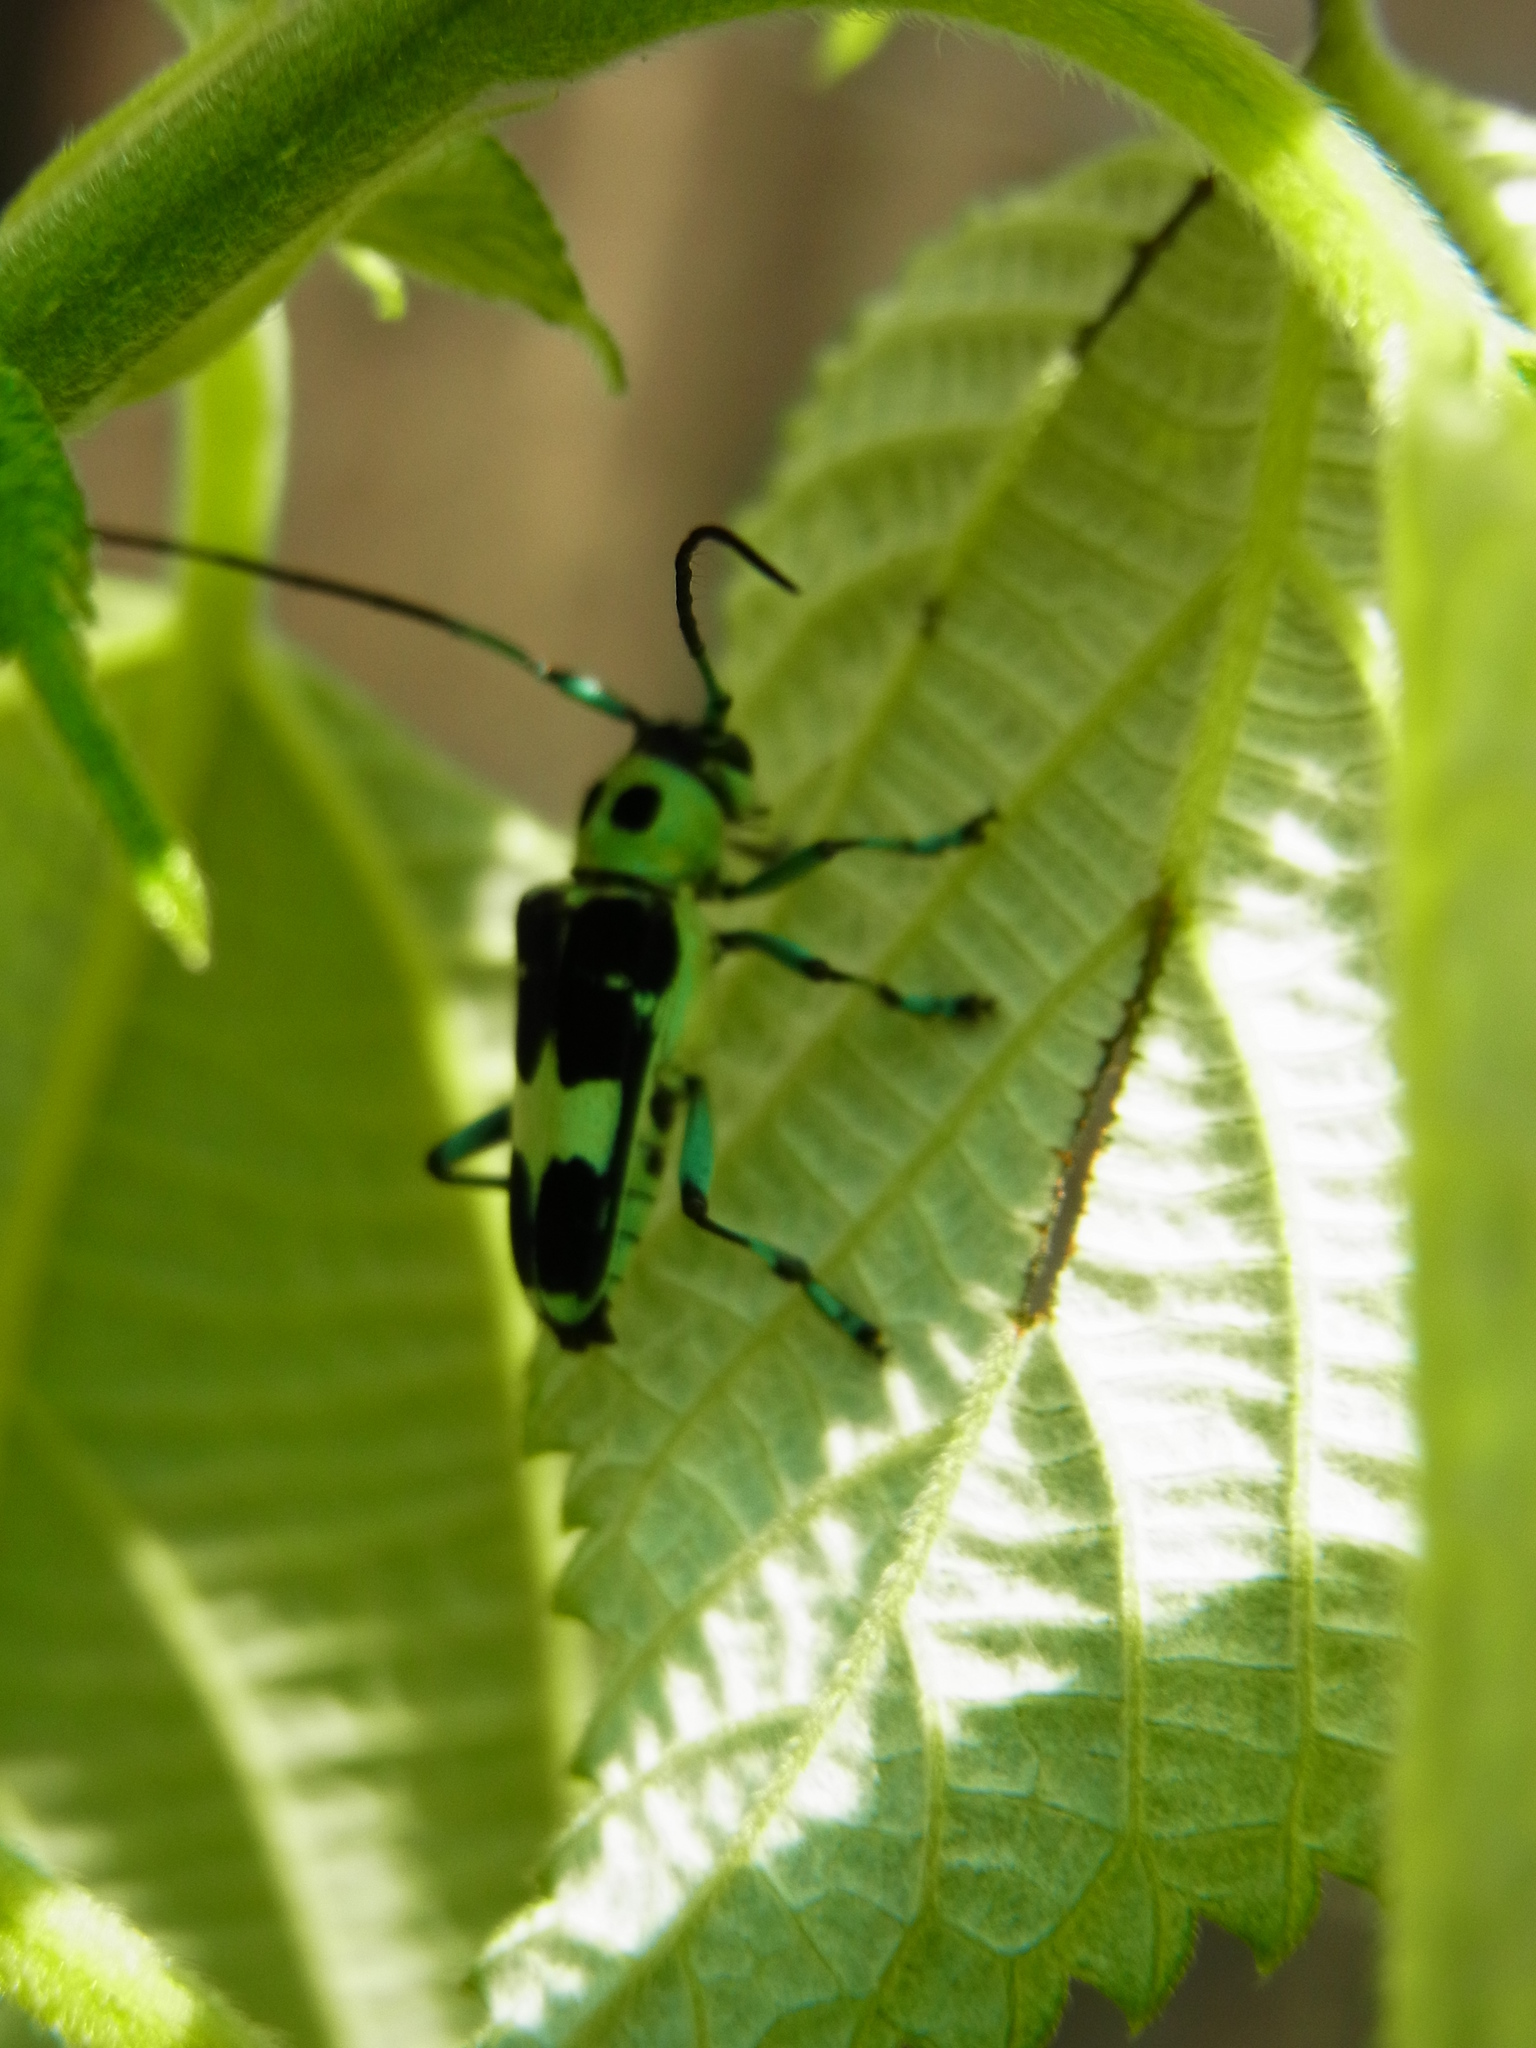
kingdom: Animalia
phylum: Arthropoda
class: Insecta
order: Coleoptera
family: Cerambycidae
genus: Paraglenea
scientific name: Paraglenea fortunei
